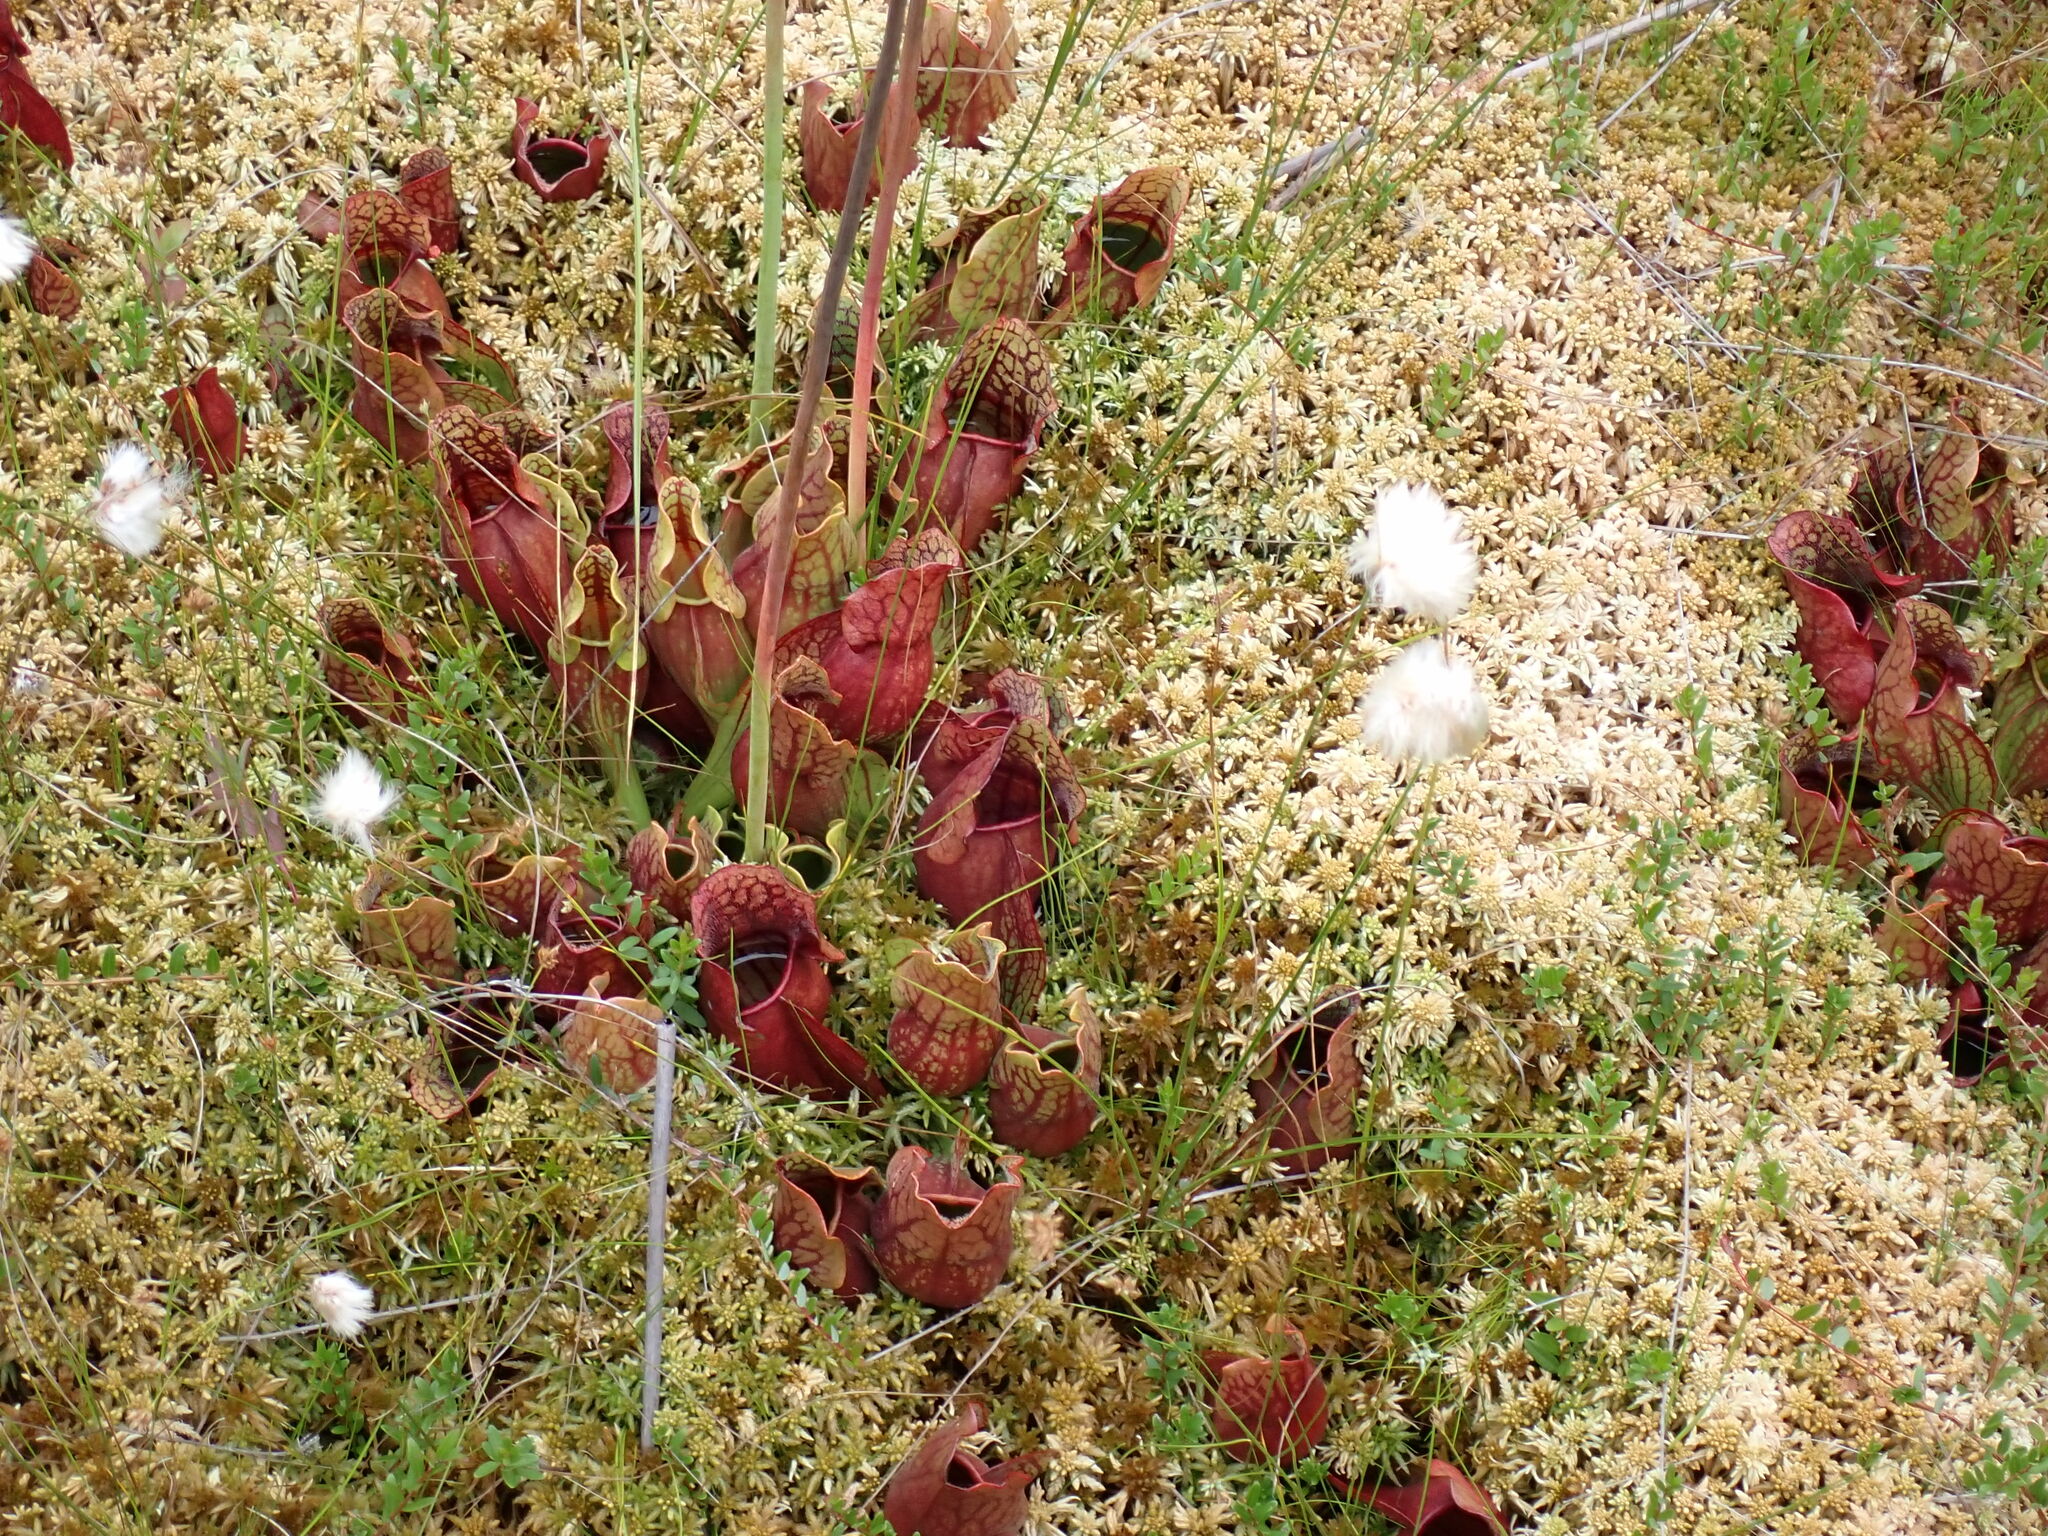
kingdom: Plantae
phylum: Tracheophyta
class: Magnoliopsida
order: Ericales
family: Sarraceniaceae
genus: Sarracenia
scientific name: Sarracenia purpurea
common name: Pitcherplant
